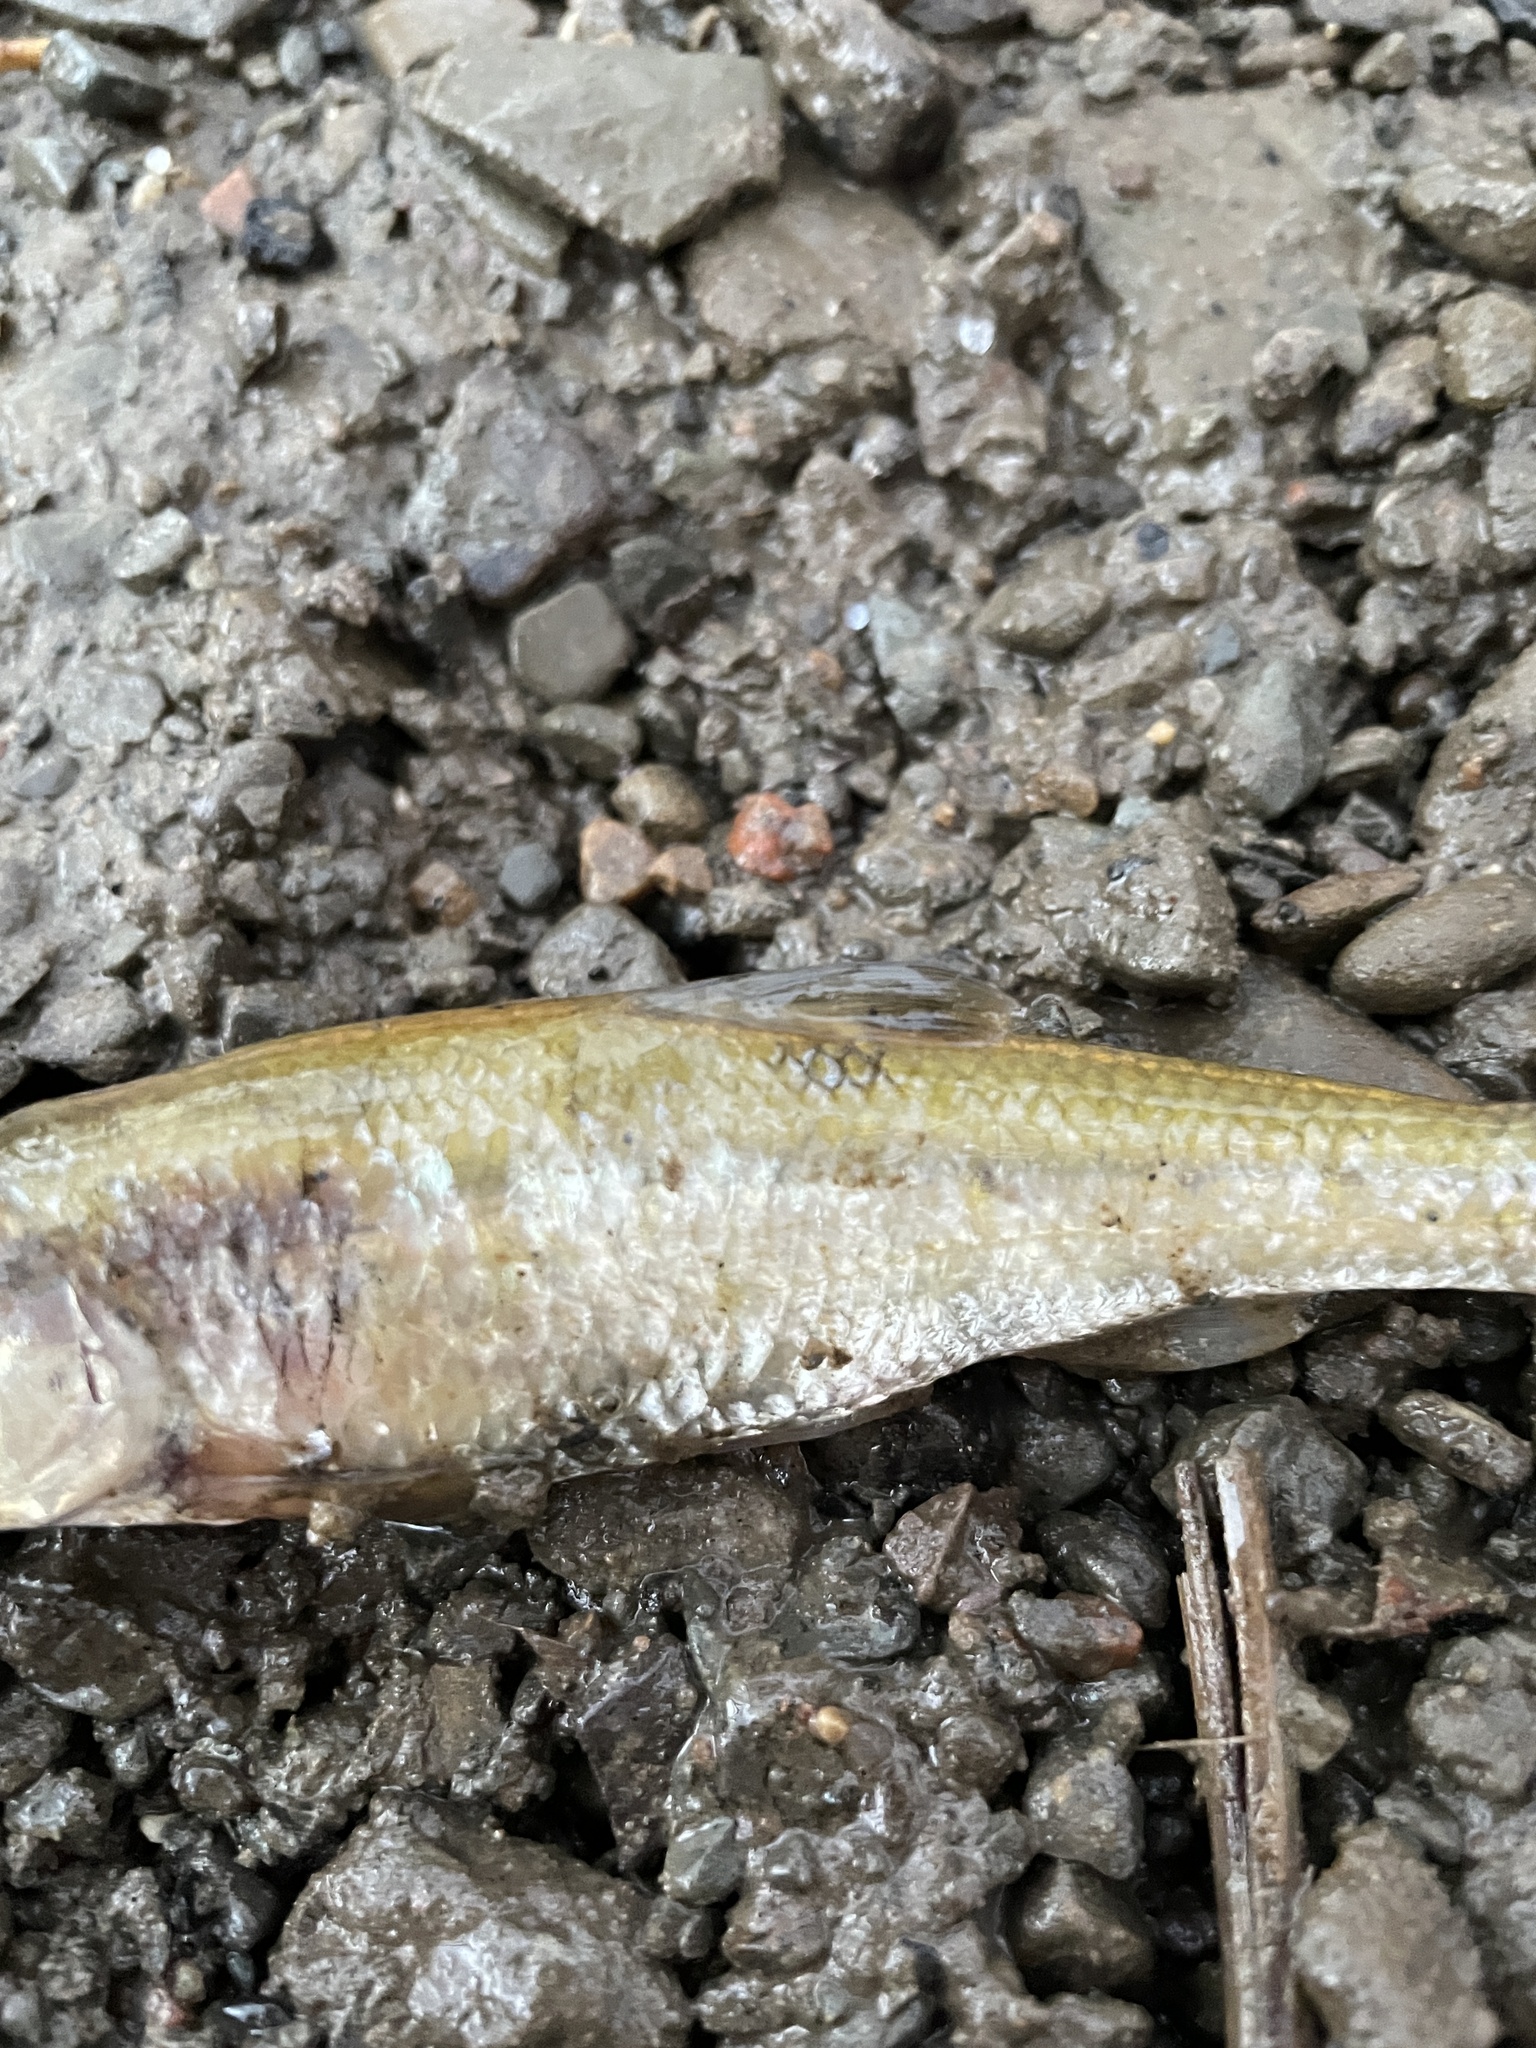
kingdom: Animalia
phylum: Chordata
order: Cypriniformes
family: Cyprinidae
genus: Luxilus
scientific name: Luxilus cornutus
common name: Common shiner
